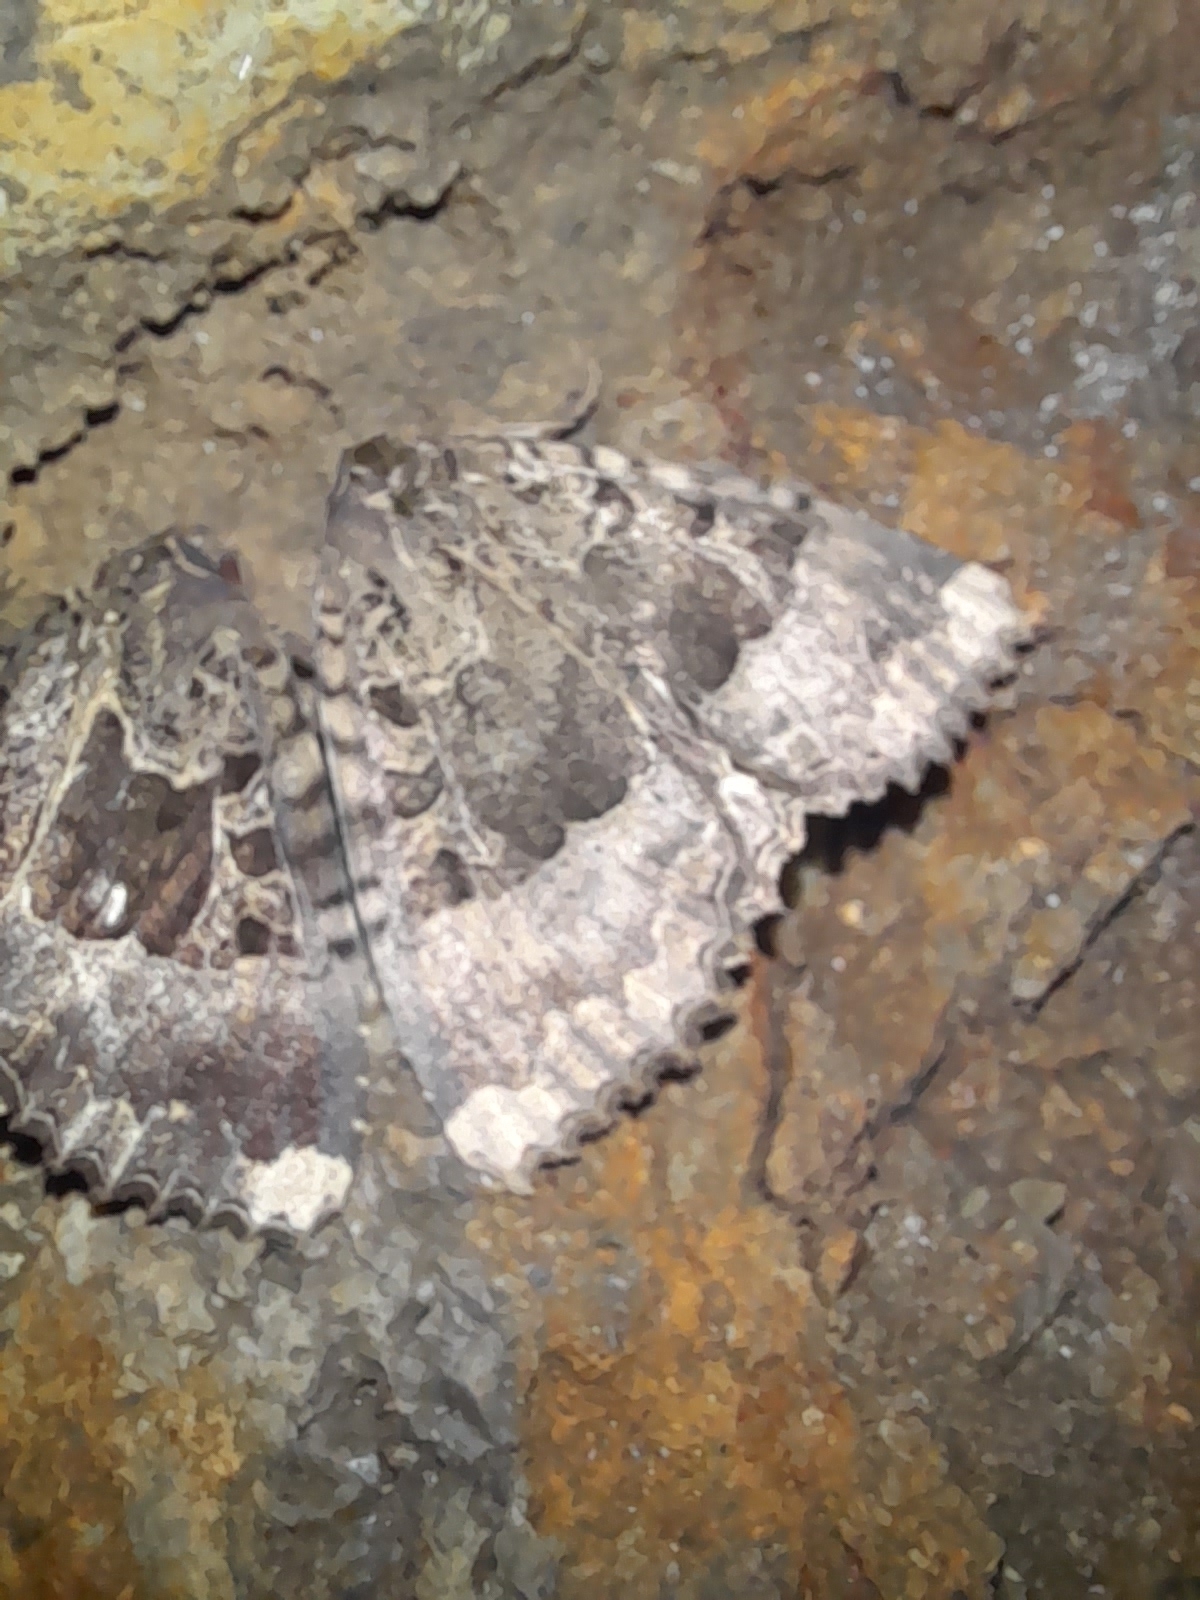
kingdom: Animalia
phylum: Arthropoda
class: Insecta
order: Lepidoptera
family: Noctuidae
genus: Mormo
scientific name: Mormo maura
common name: Old lady
